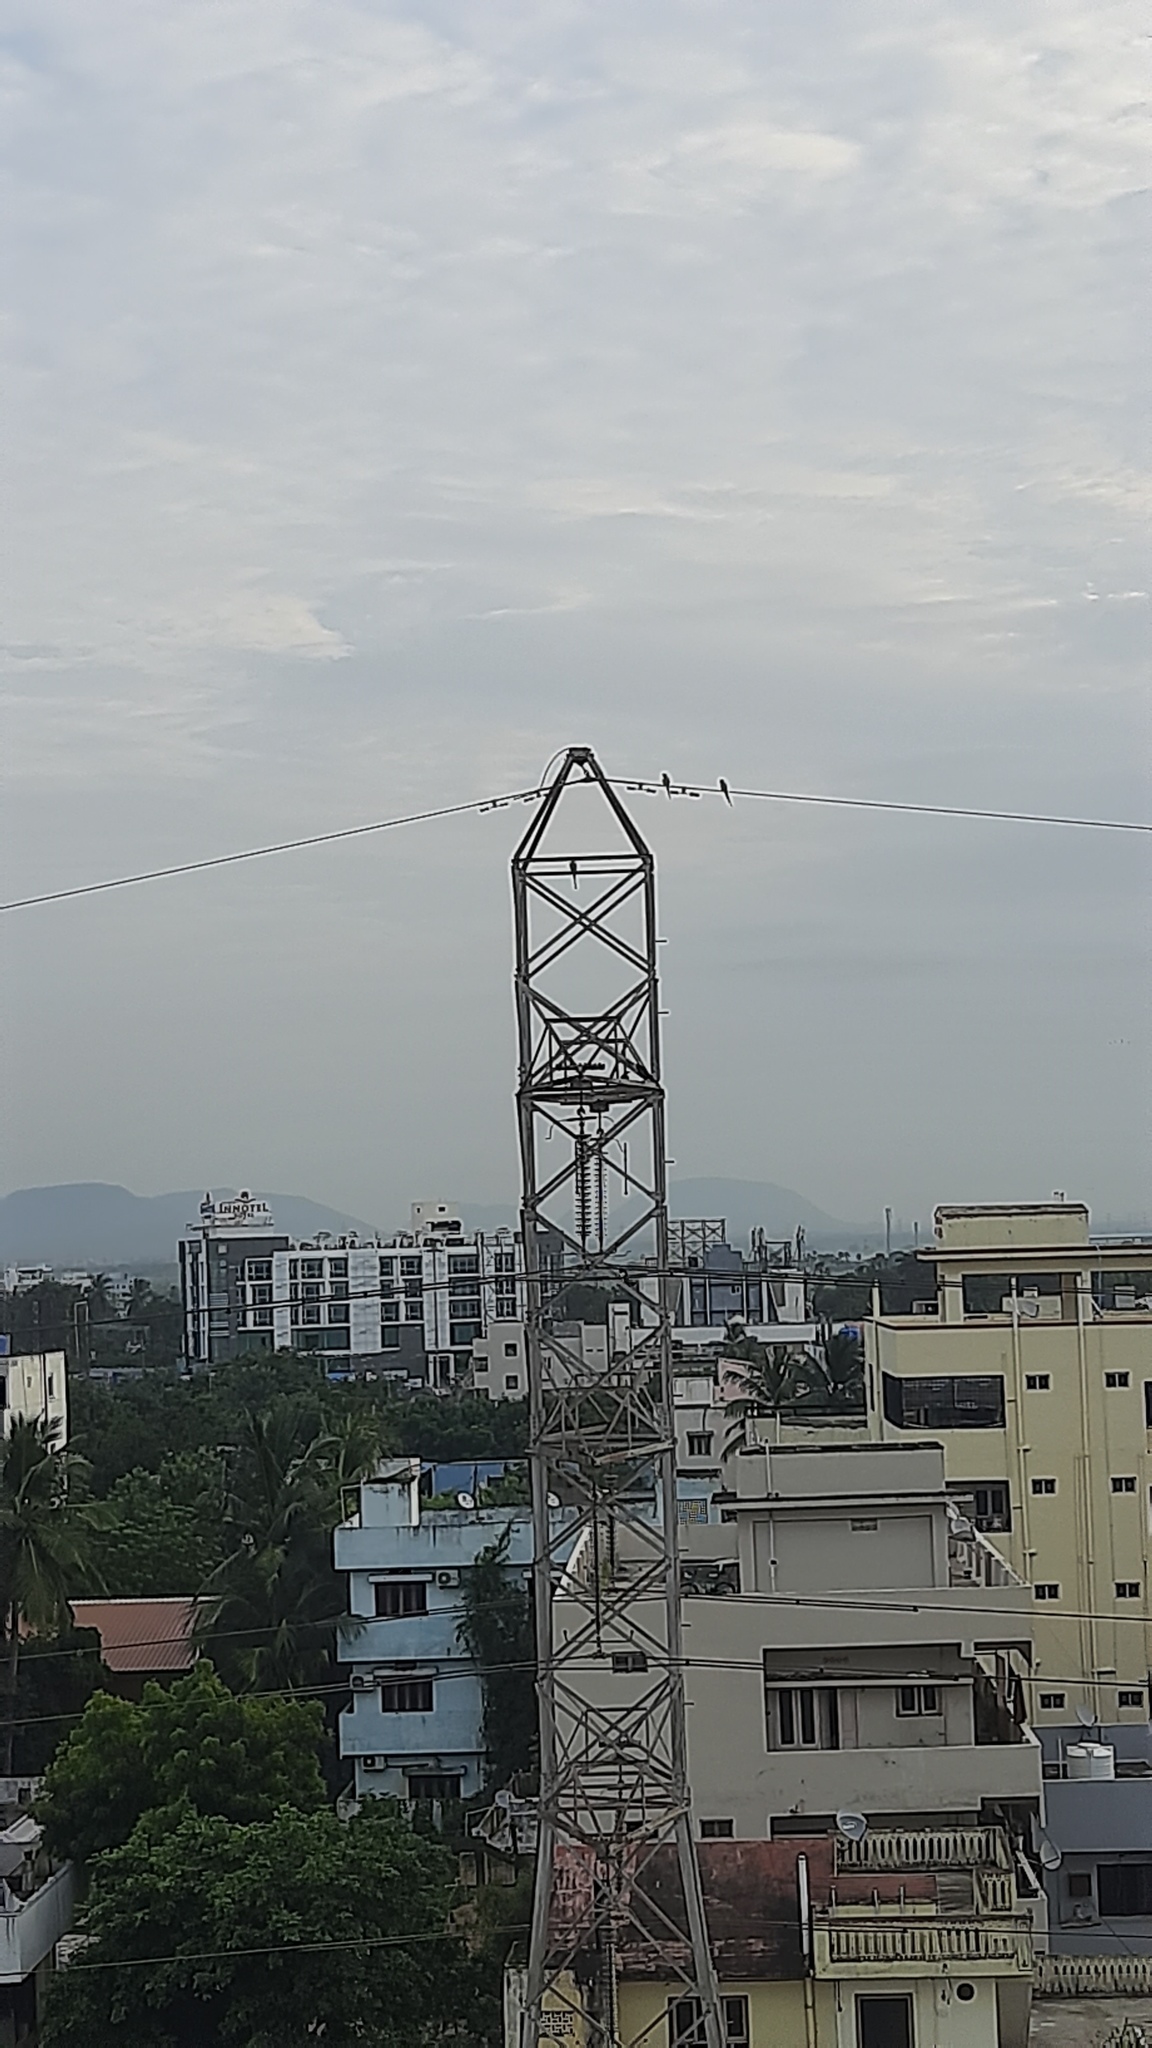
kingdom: Animalia
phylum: Chordata
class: Aves
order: Psittaciformes
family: Psittacidae
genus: Psittacula
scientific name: Psittacula krameri
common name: Rose-ringed parakeet
